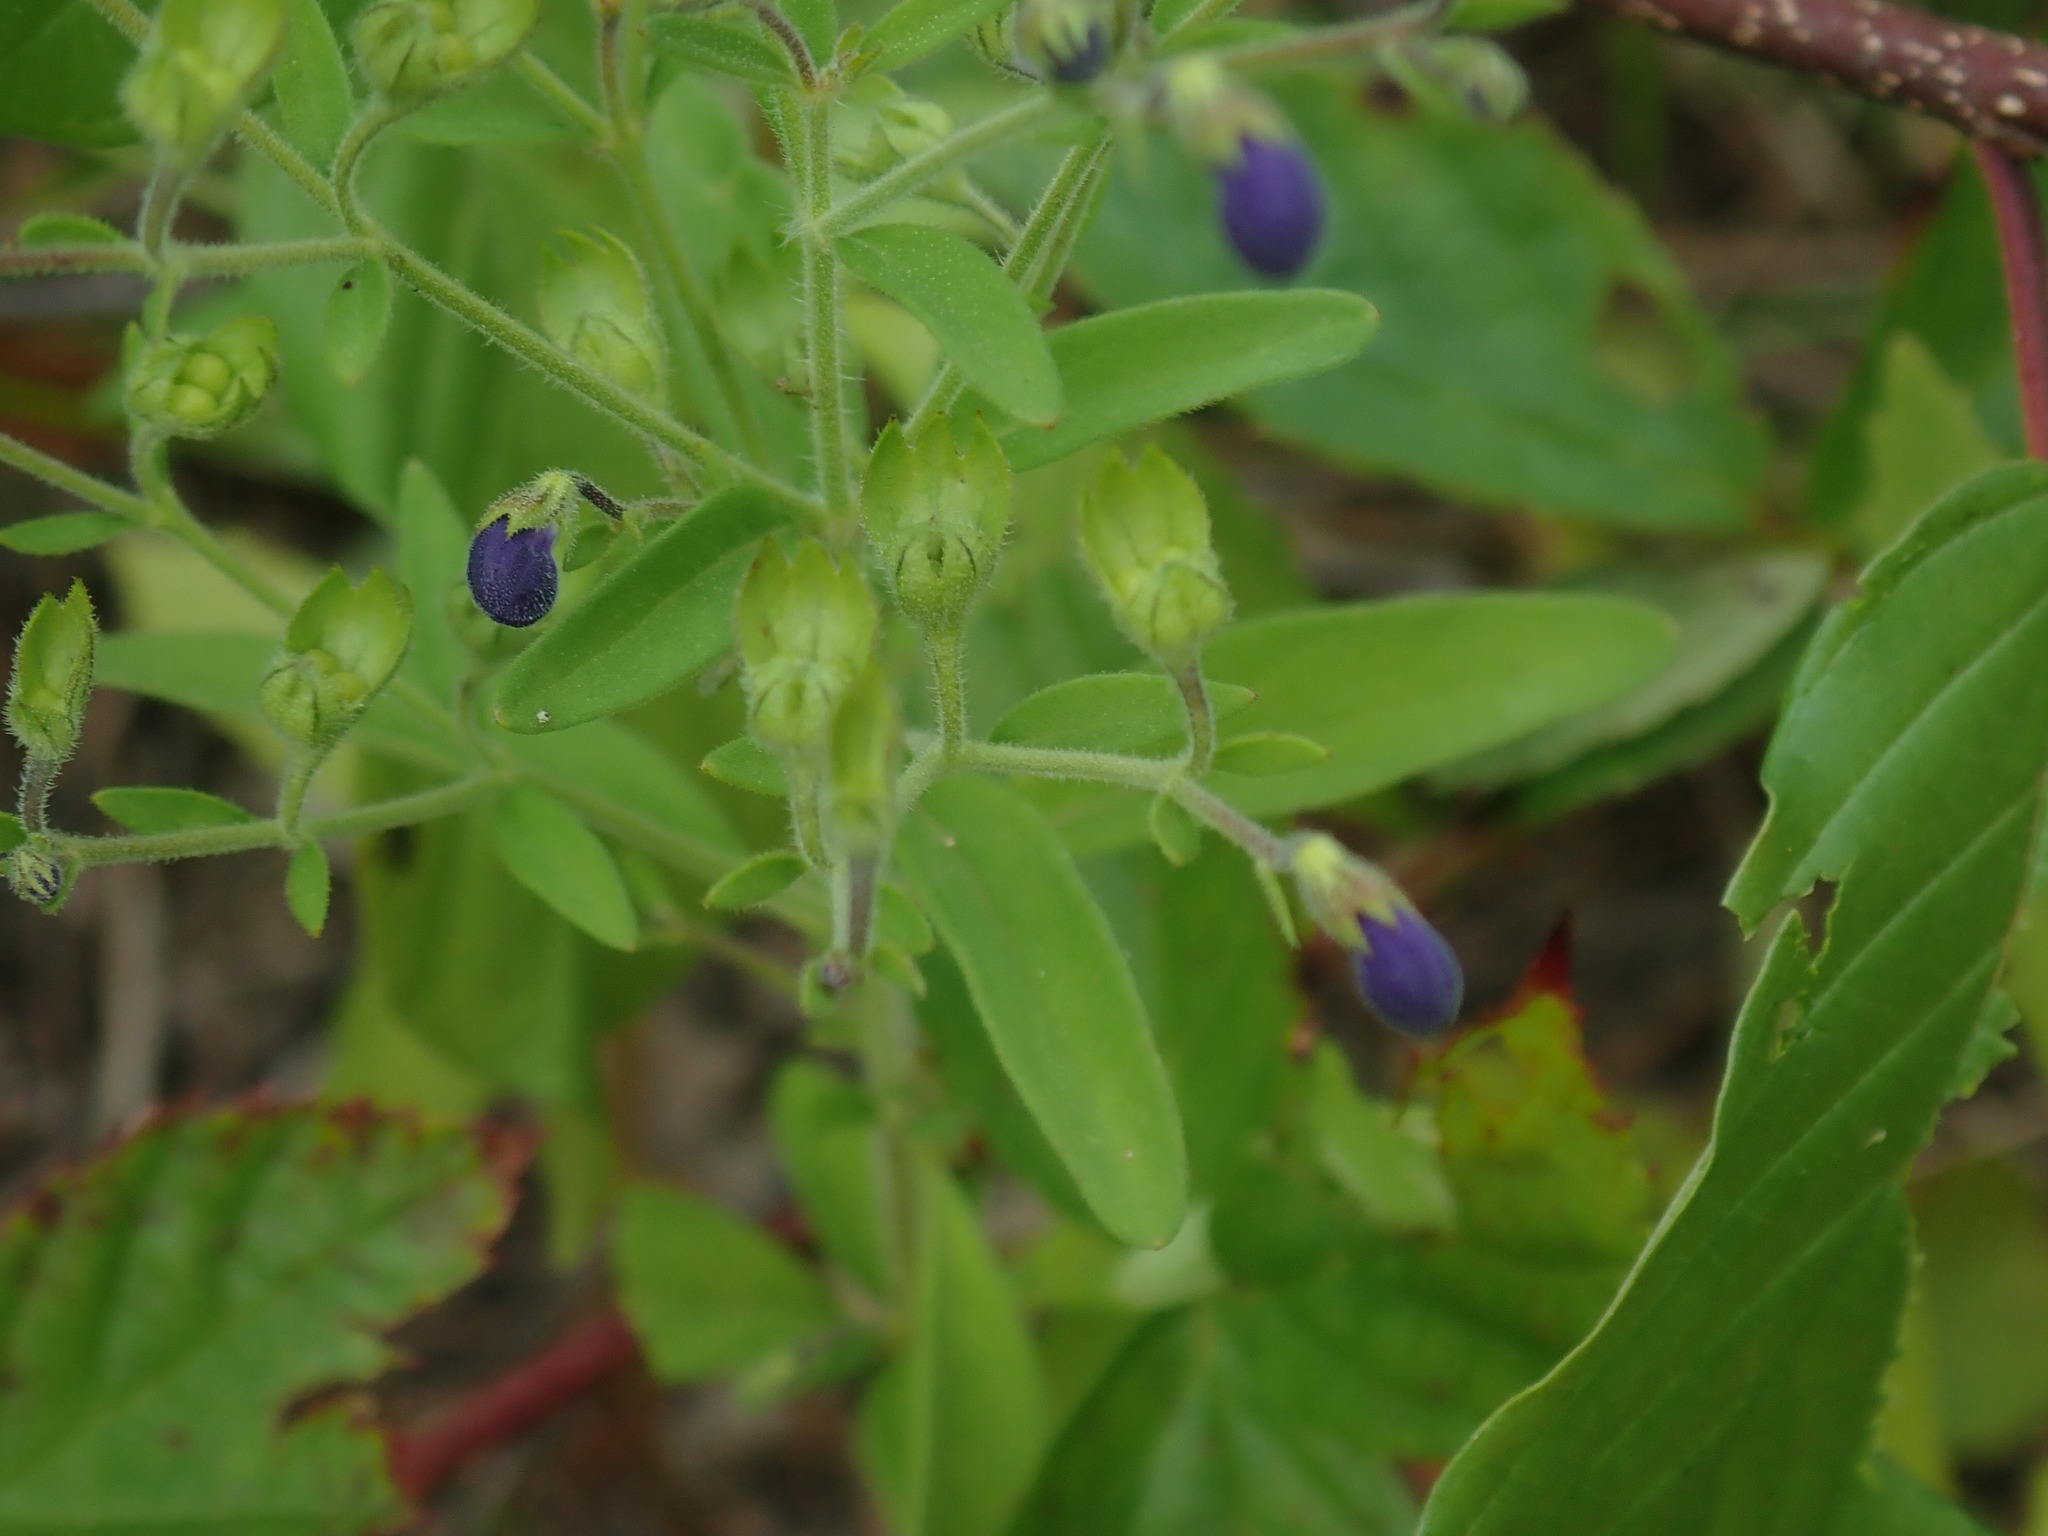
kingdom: Plantae
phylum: Tracheophyta
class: Magnoliopsida
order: Lamiales
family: Lamiaceae
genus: Trichostema
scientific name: Trichostema dichotomum
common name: Bastard pennyroyal
